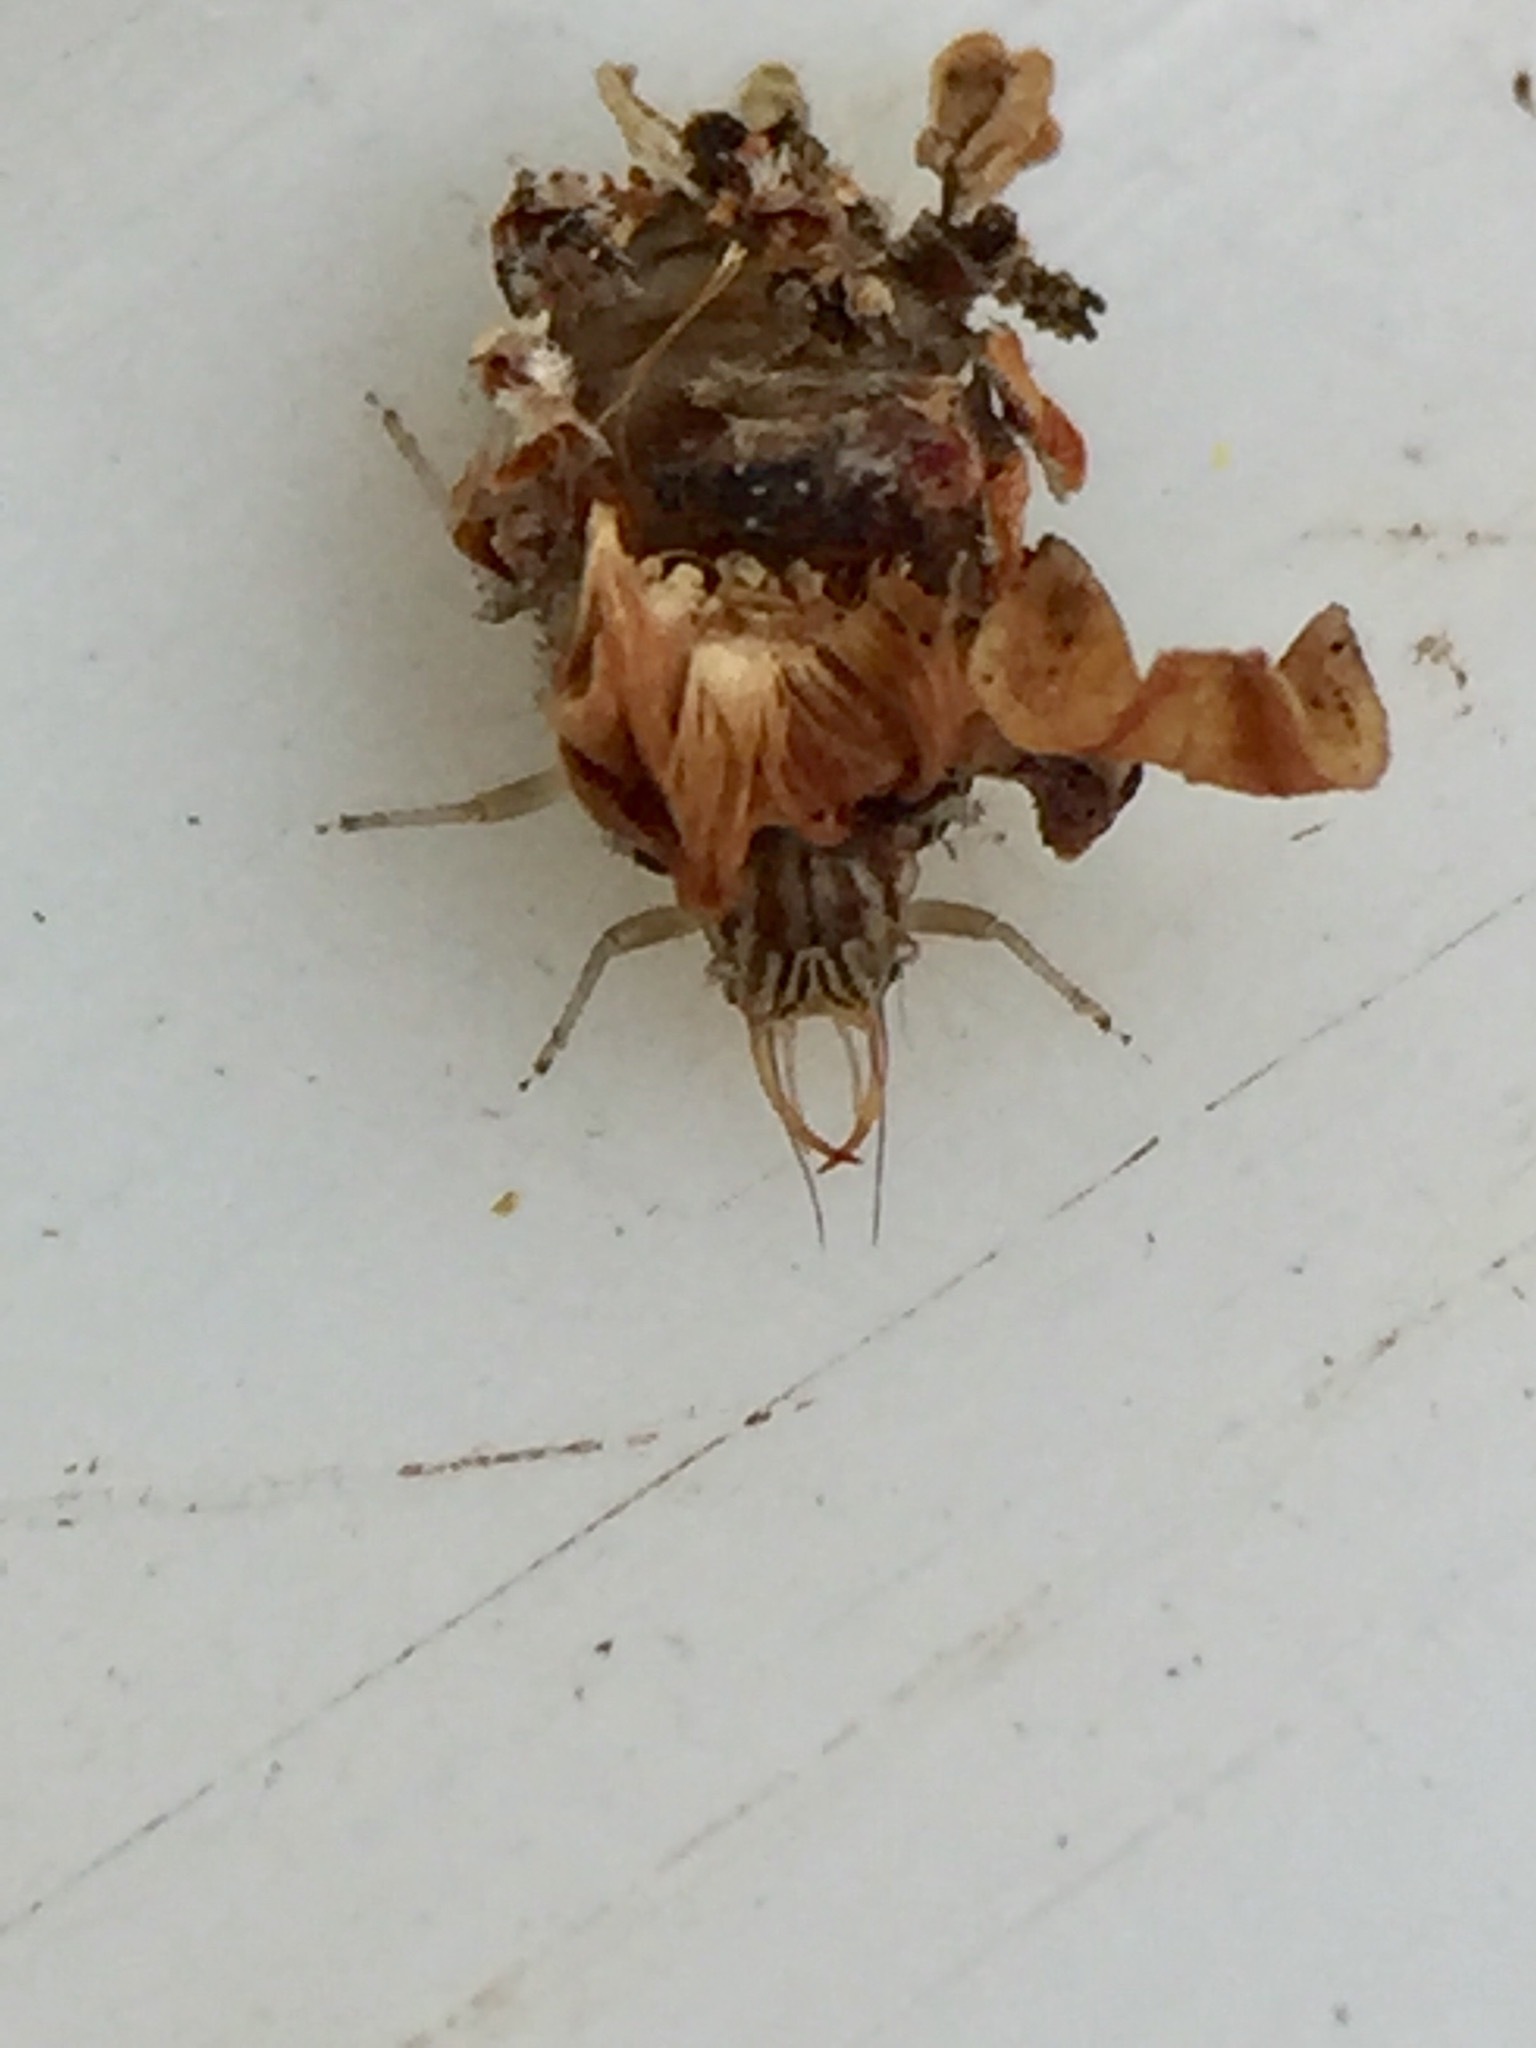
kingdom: Animalia
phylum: Arthropoda
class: Insecta
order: Neuroptera
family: Chrysopidae
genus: Mallada
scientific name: Mallada basalis
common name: Green lacewing
